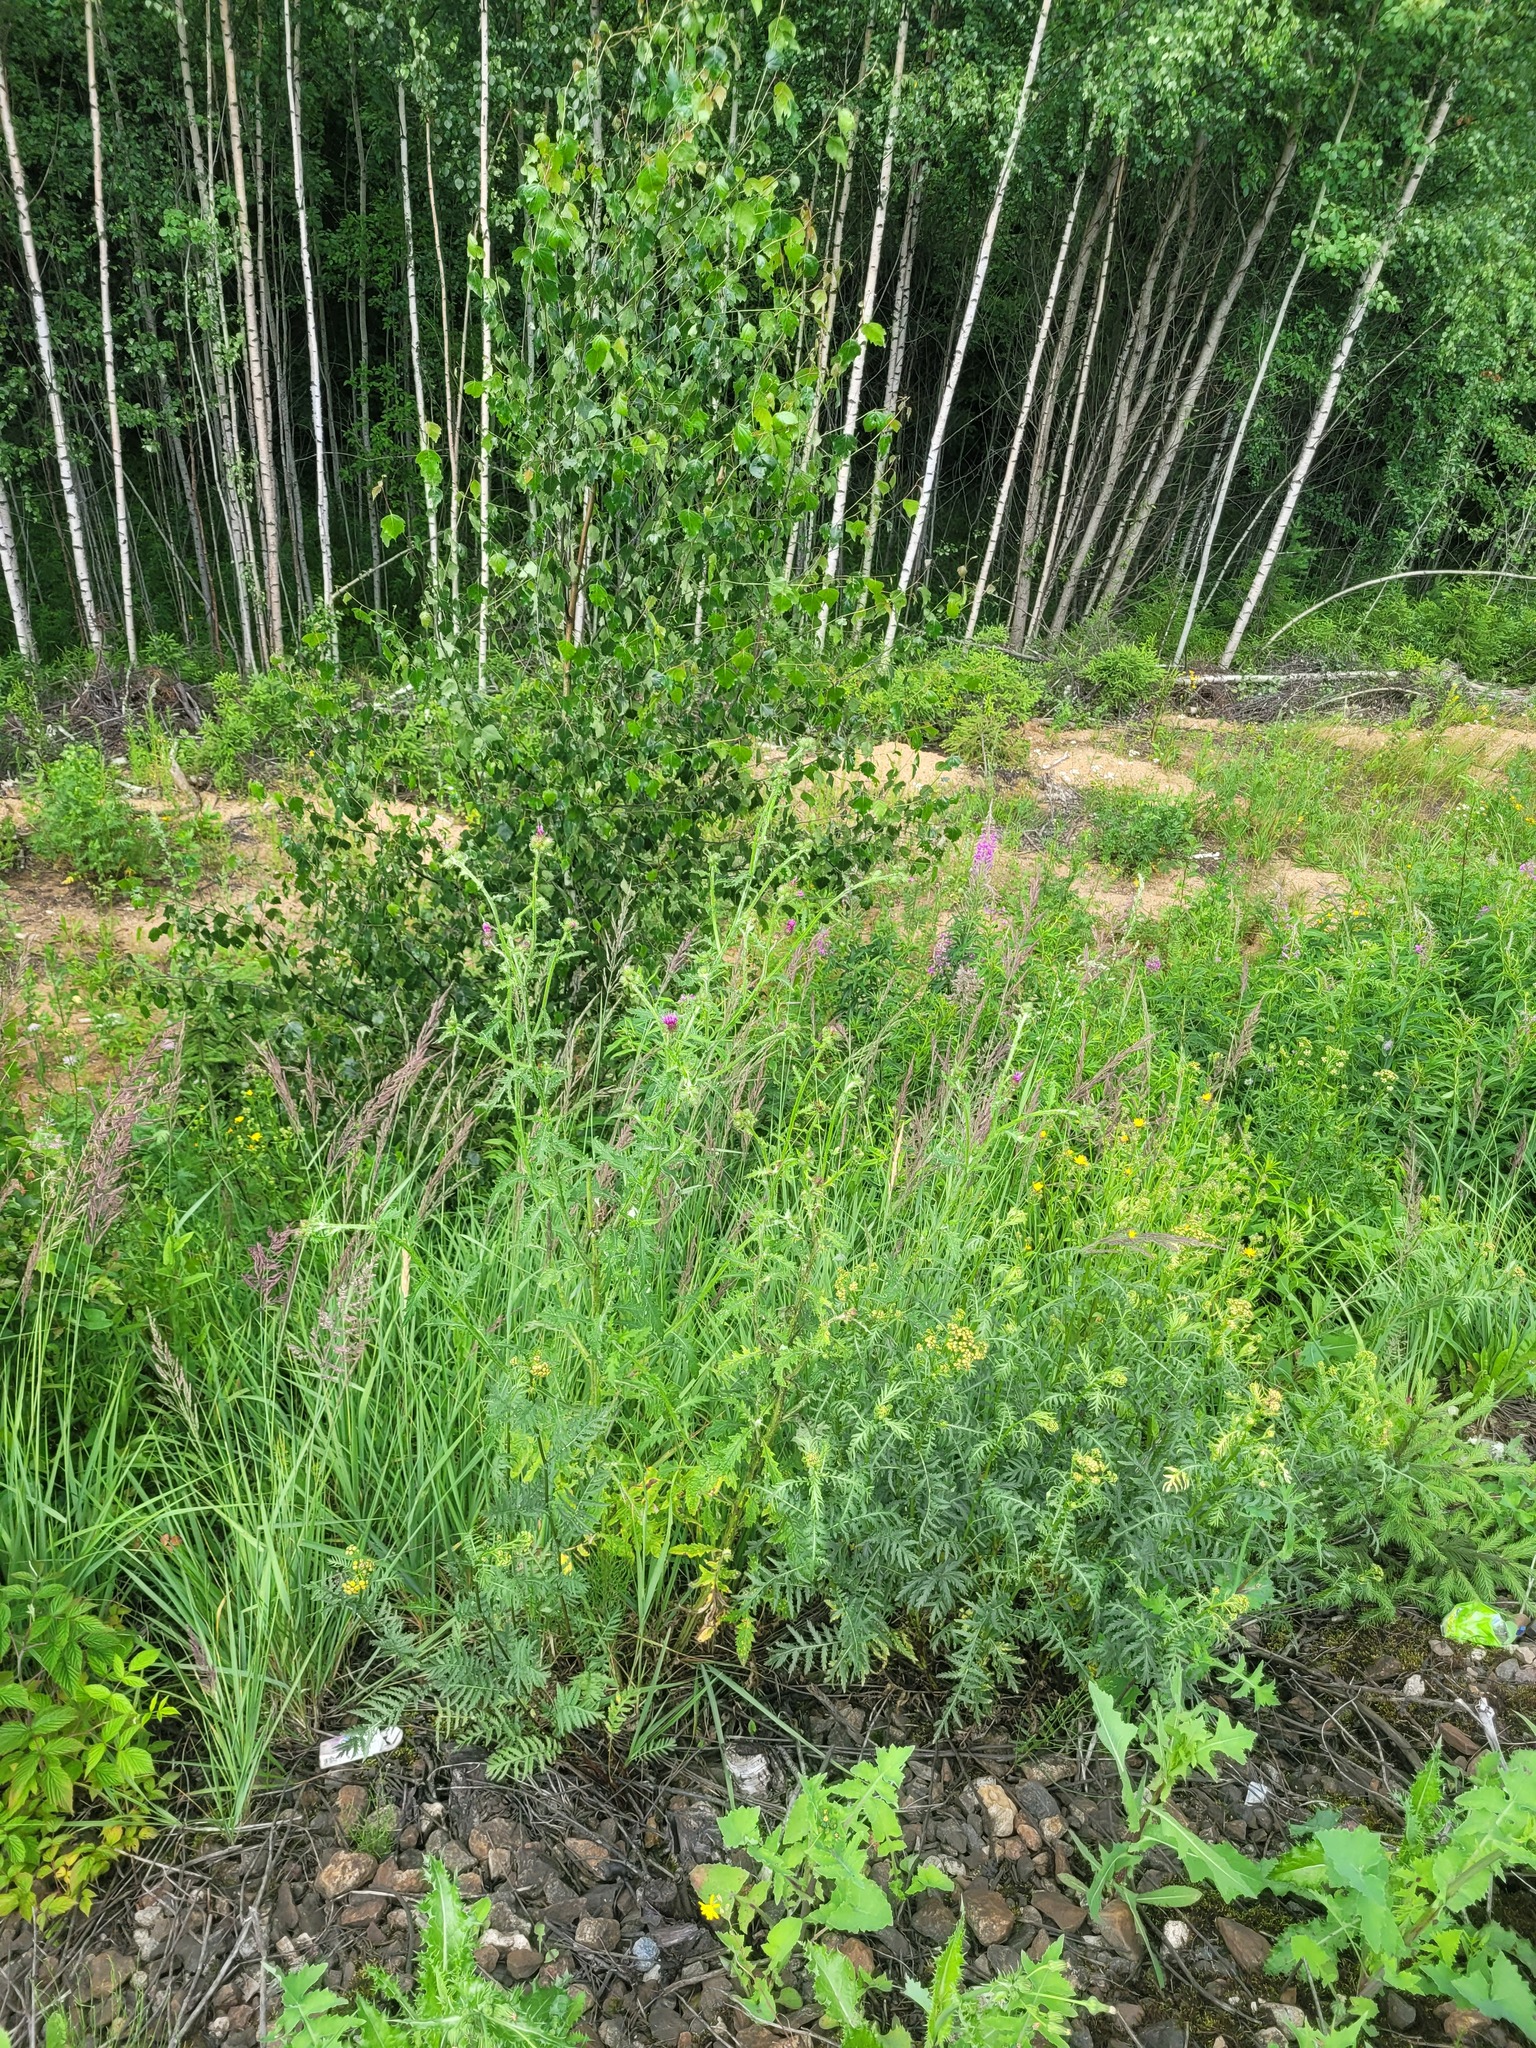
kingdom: Plantae
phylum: Tracheophyta
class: Magnoliopsida
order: Asterales
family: Asteraceae
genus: Carduus
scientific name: Carduus crispus
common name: Welted thistle
